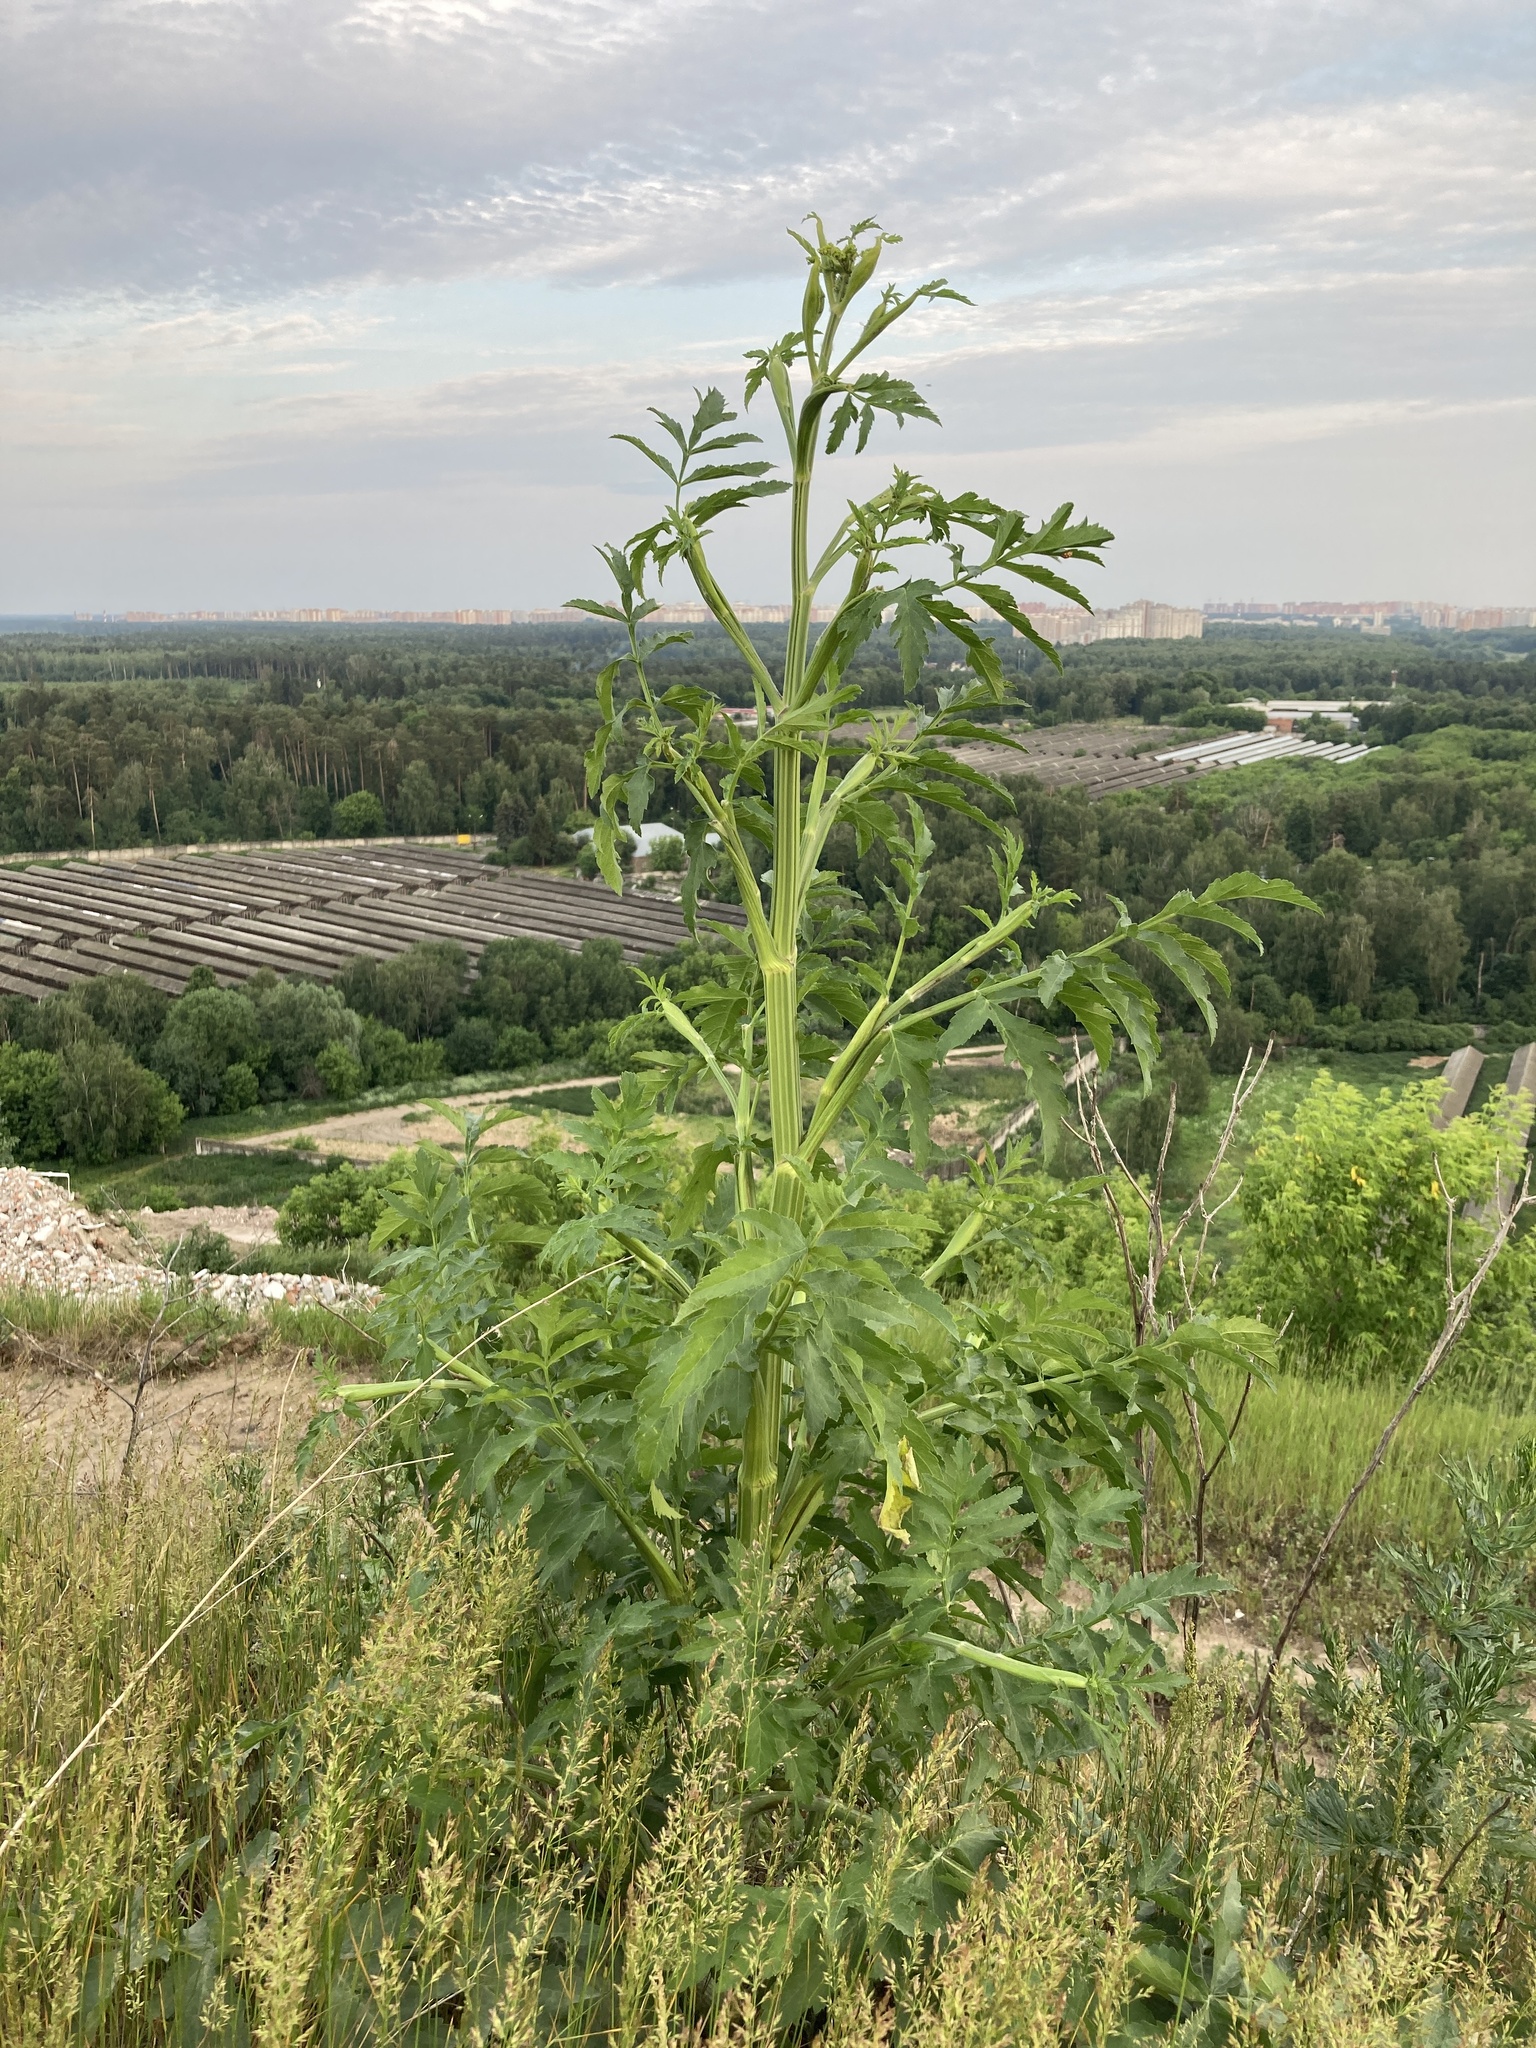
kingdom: Plantae
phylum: Tracheophyta
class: Magnoliopsida
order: Apiales
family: Apiaceae
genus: Pastinaca
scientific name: Pastinaca sativa
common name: Wild parsnip
